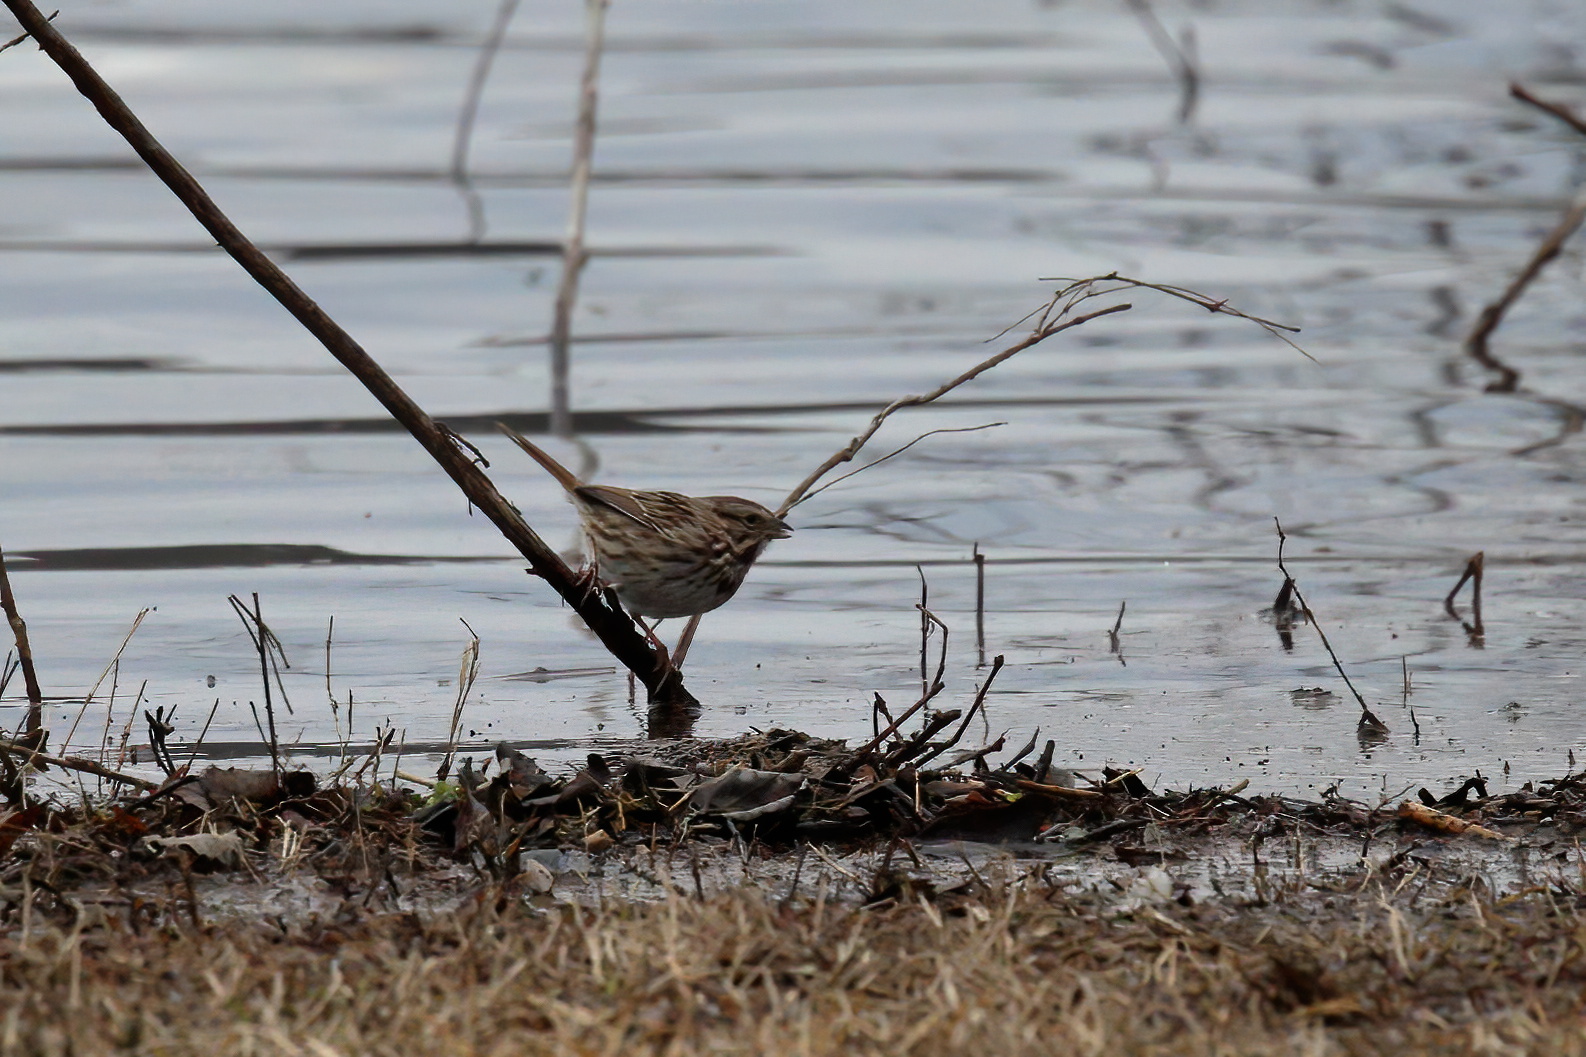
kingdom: Animalia
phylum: Chordata
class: Aves
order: Passeriformes
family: Passerellidae
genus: Melospiza
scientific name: Melospiza melodia
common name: Song sparrow
